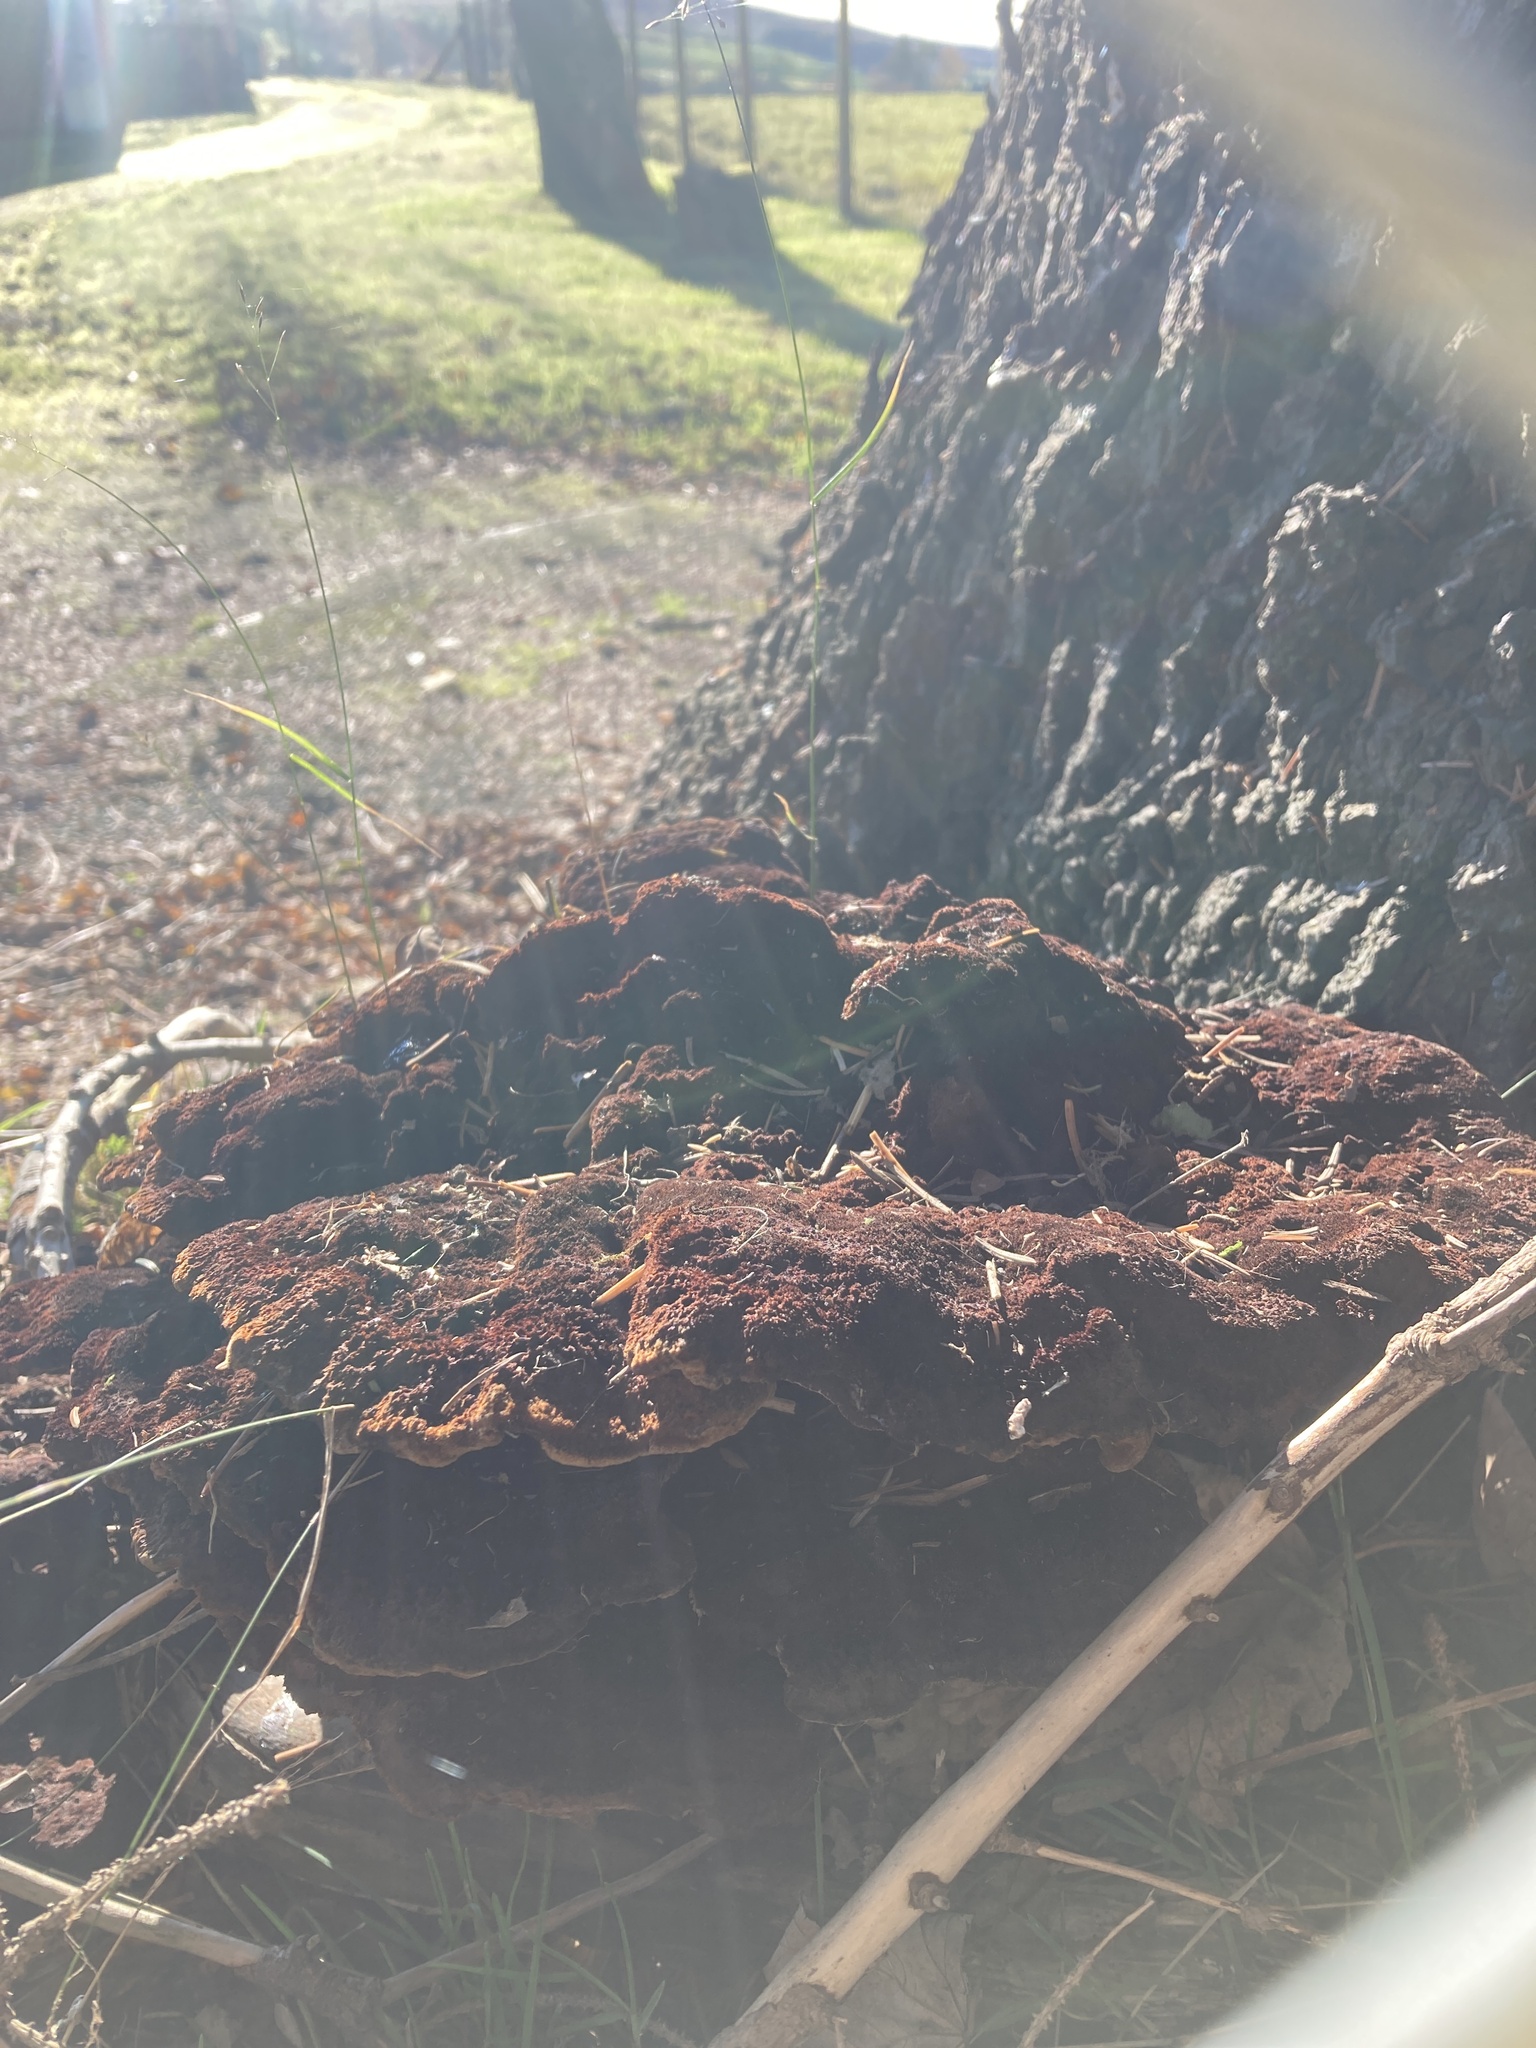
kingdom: Fungi
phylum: Basidiomycota
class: Agaricomycetes
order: Polyporales
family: Laetiporaceae
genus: Phaeolus
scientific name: Phaeolus schweinitzii
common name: Dyer's mazegill
